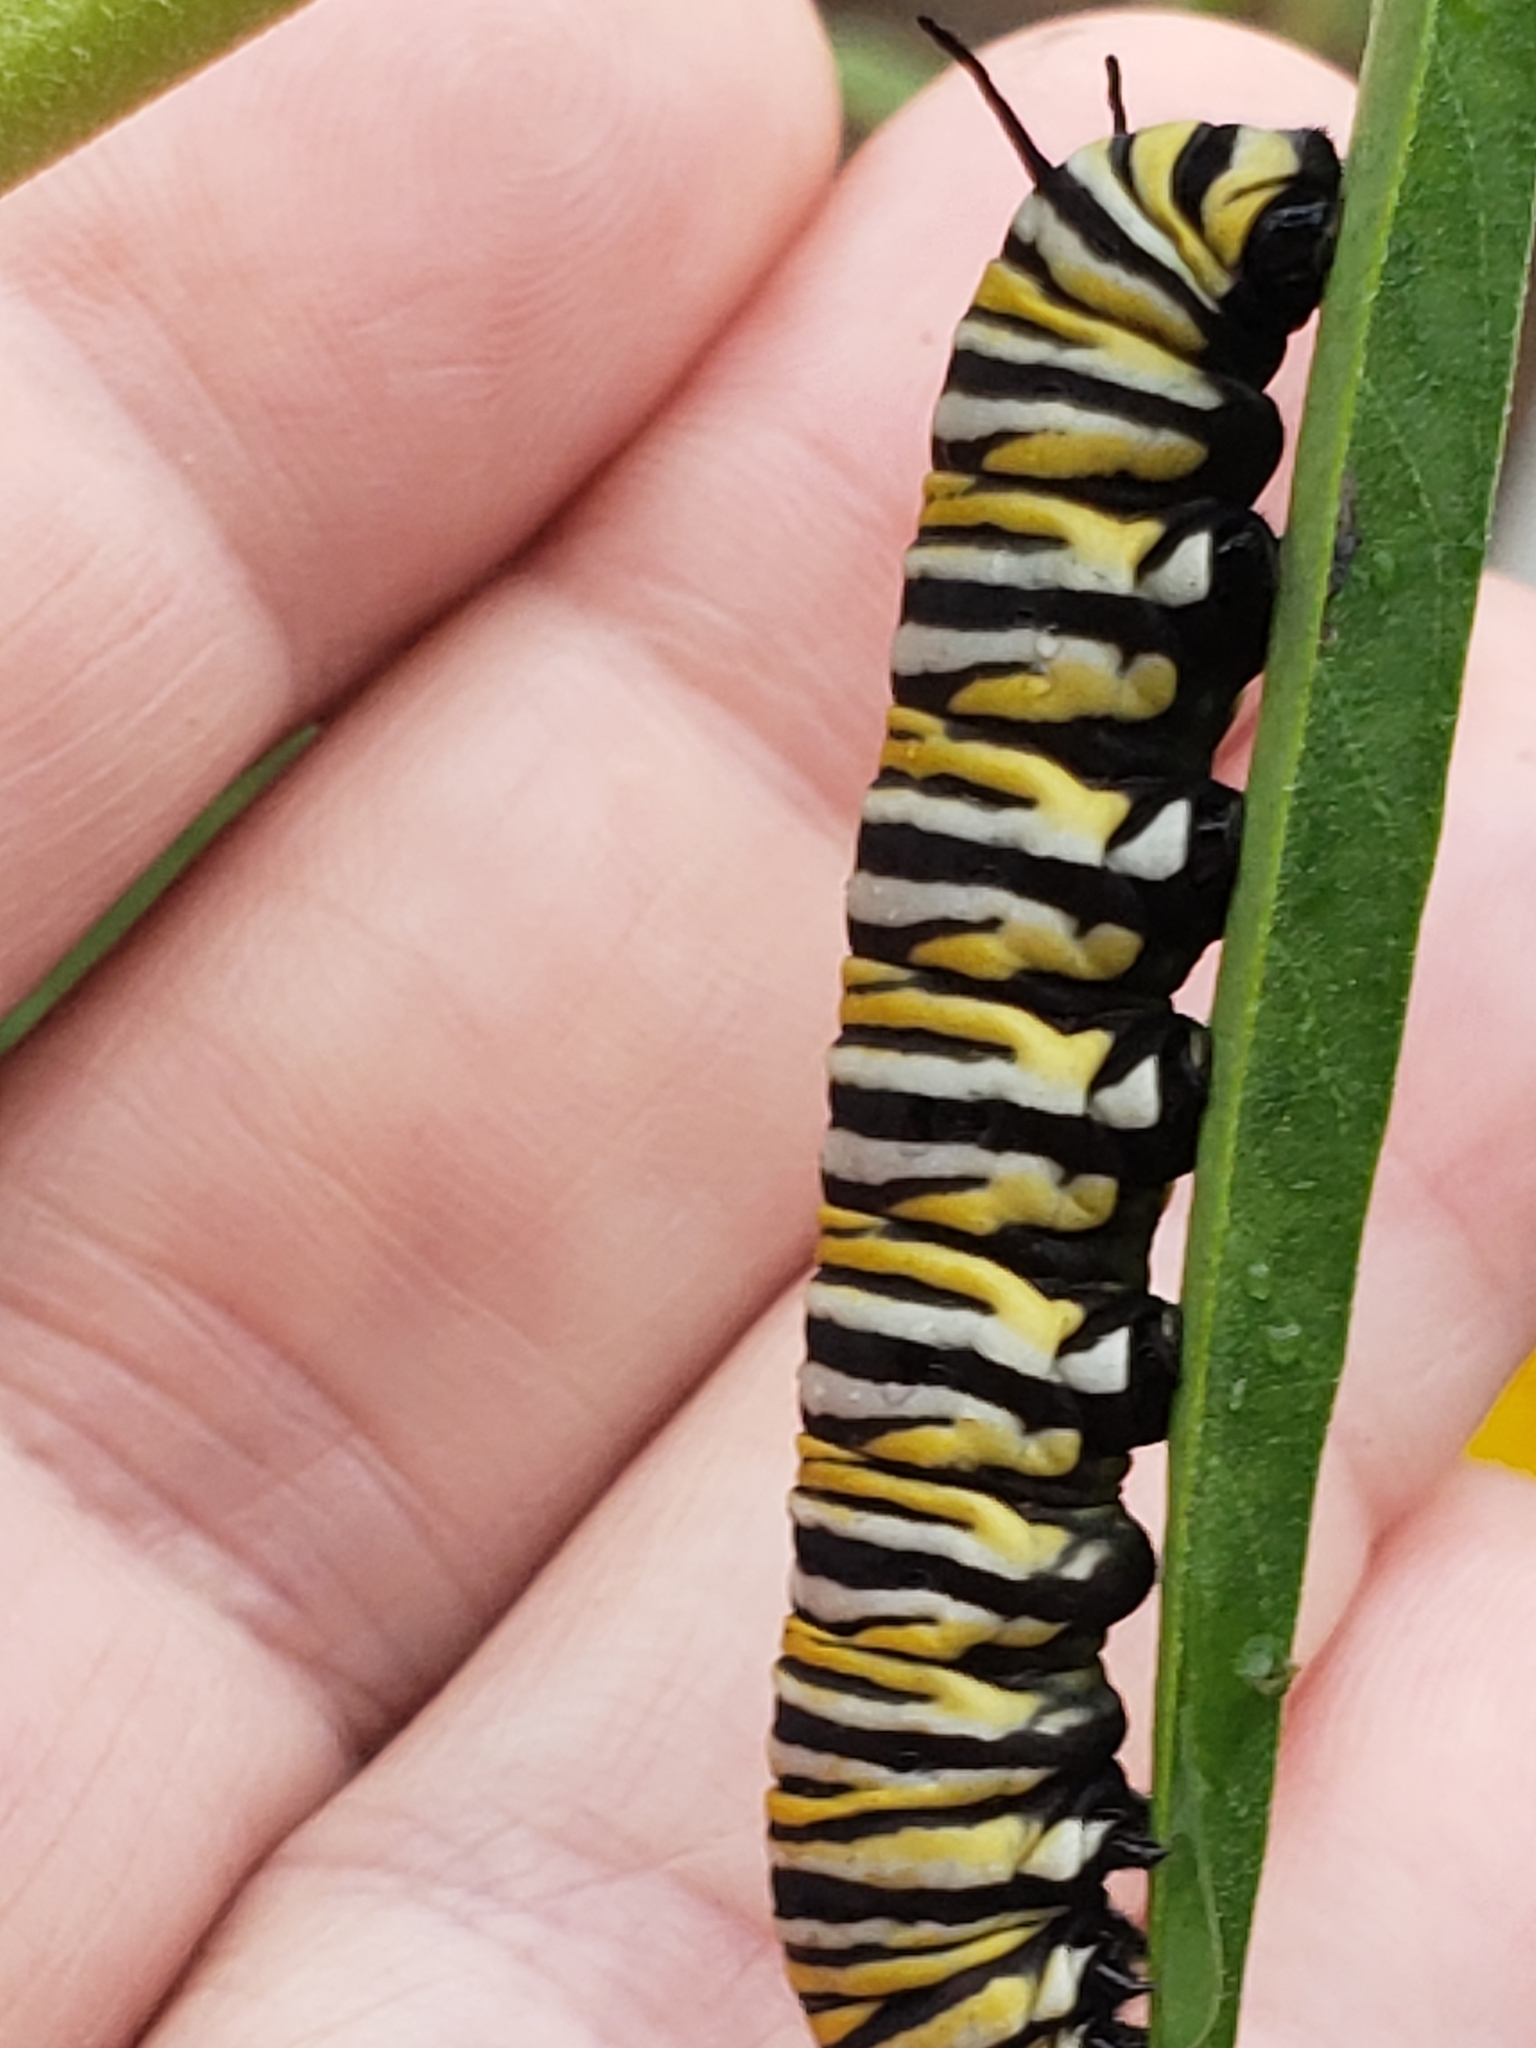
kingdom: Animalia
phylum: Arthropoda
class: Insecta
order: Lepidoptera
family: Nymphalidae
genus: Danaus
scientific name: Danaus plexippus
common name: Monarch
